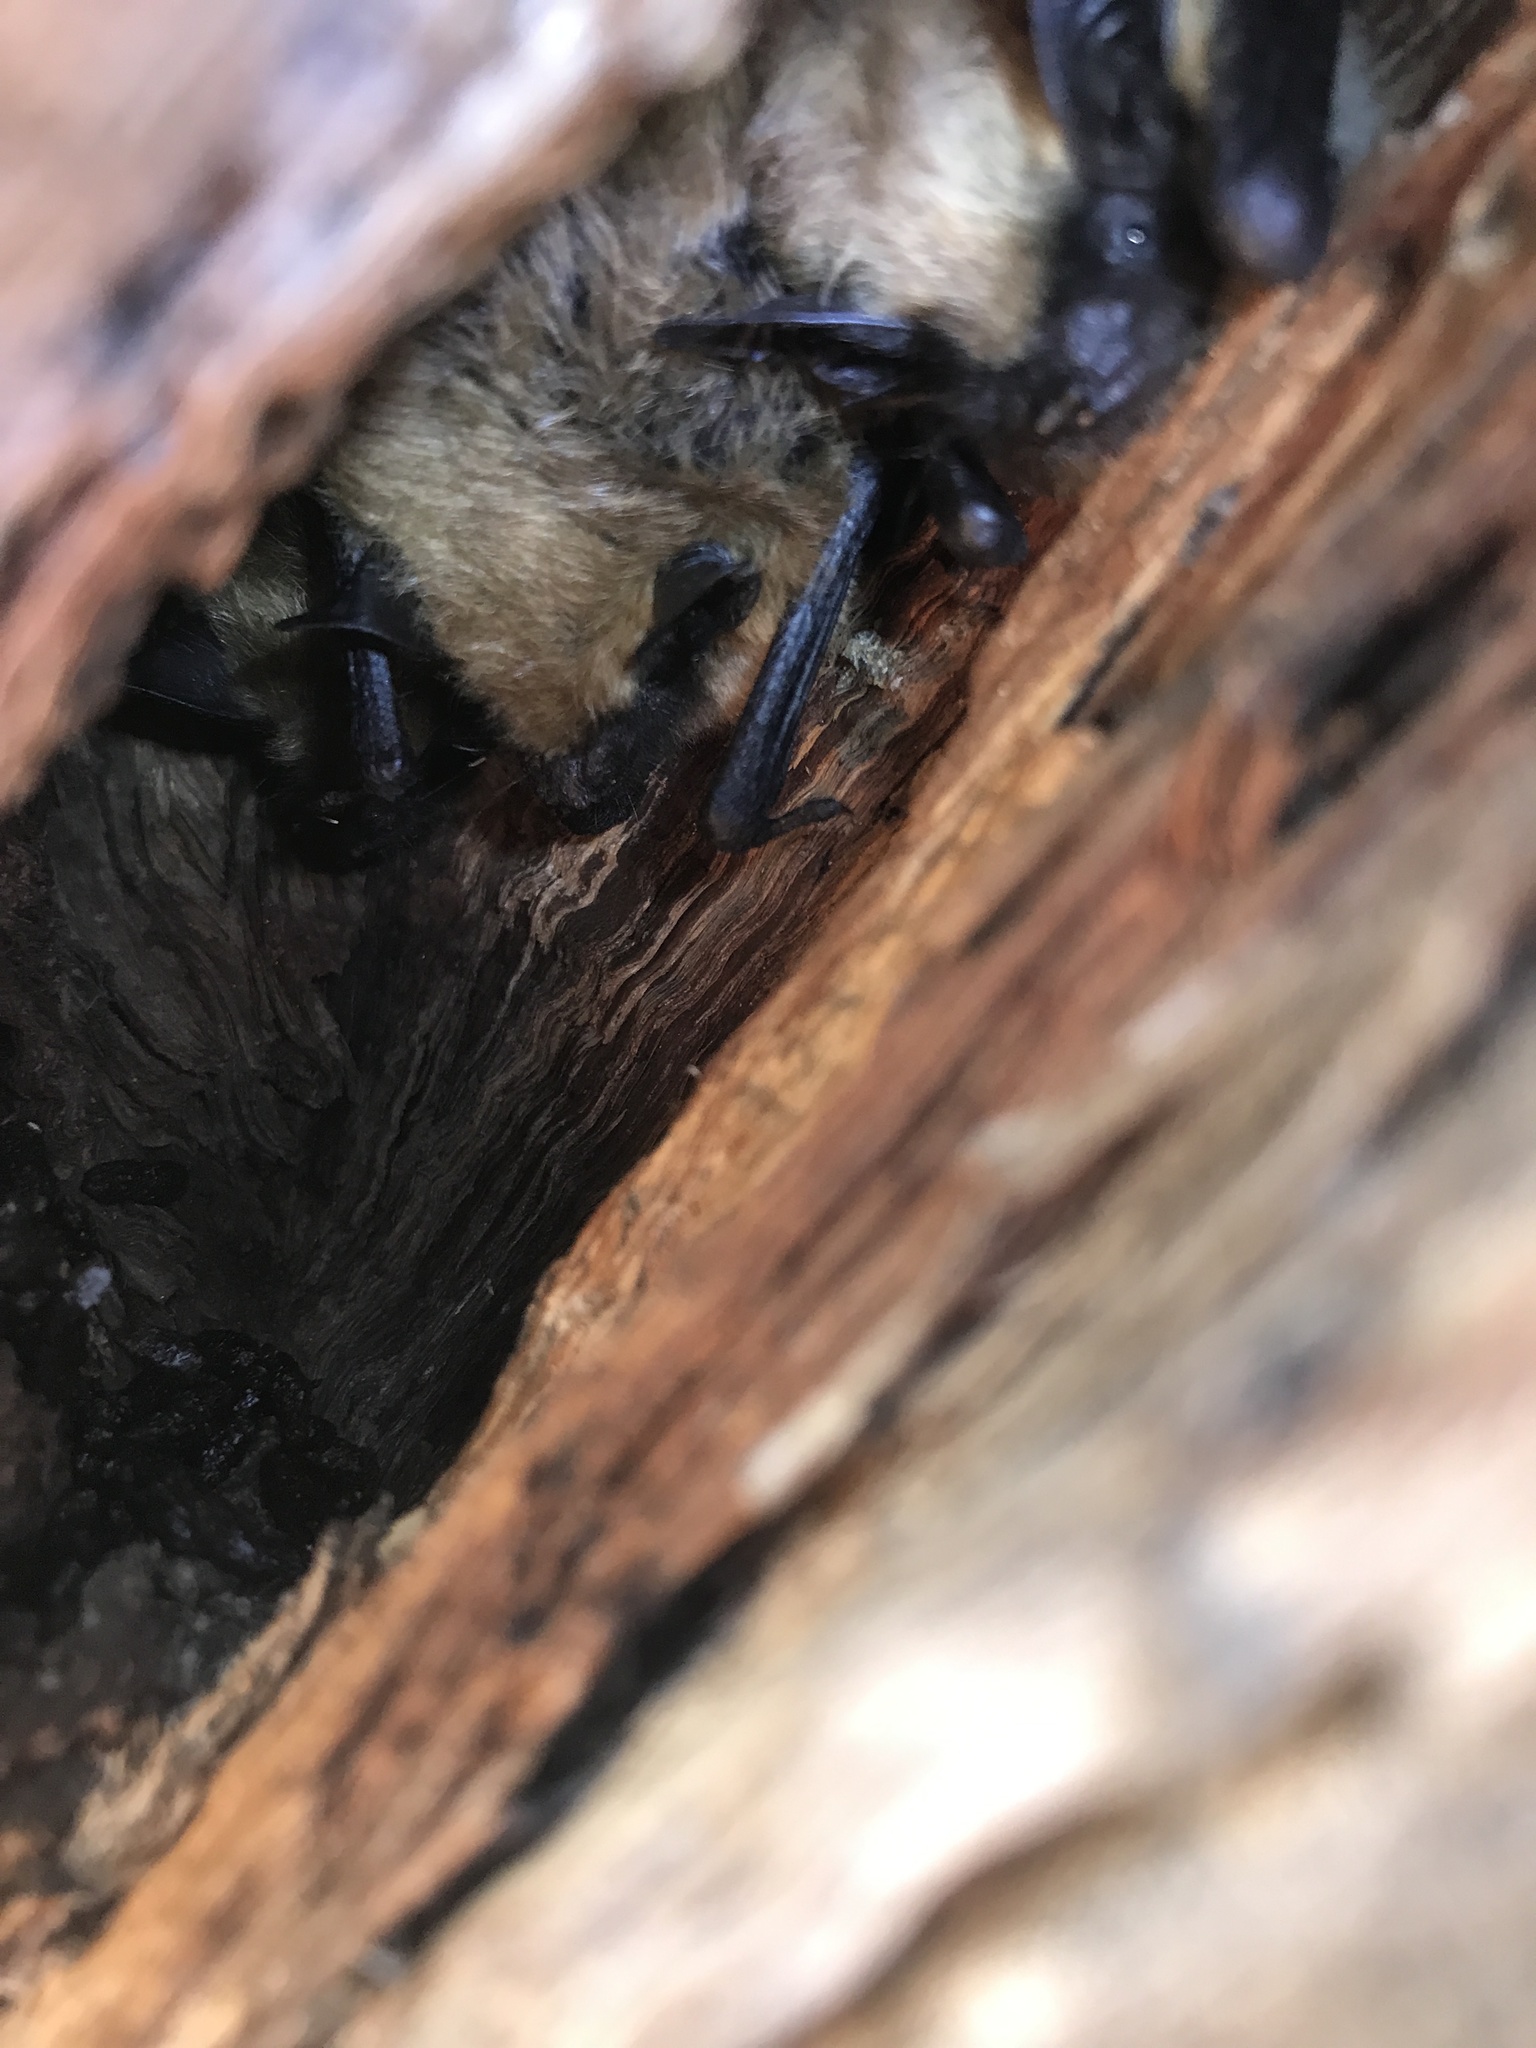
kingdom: Animalia
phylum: Chordata
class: Mammalia
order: Chiroptera
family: Vespertilionidae
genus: Myotis
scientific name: Myotis thysanodes
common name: Fringed myotis
